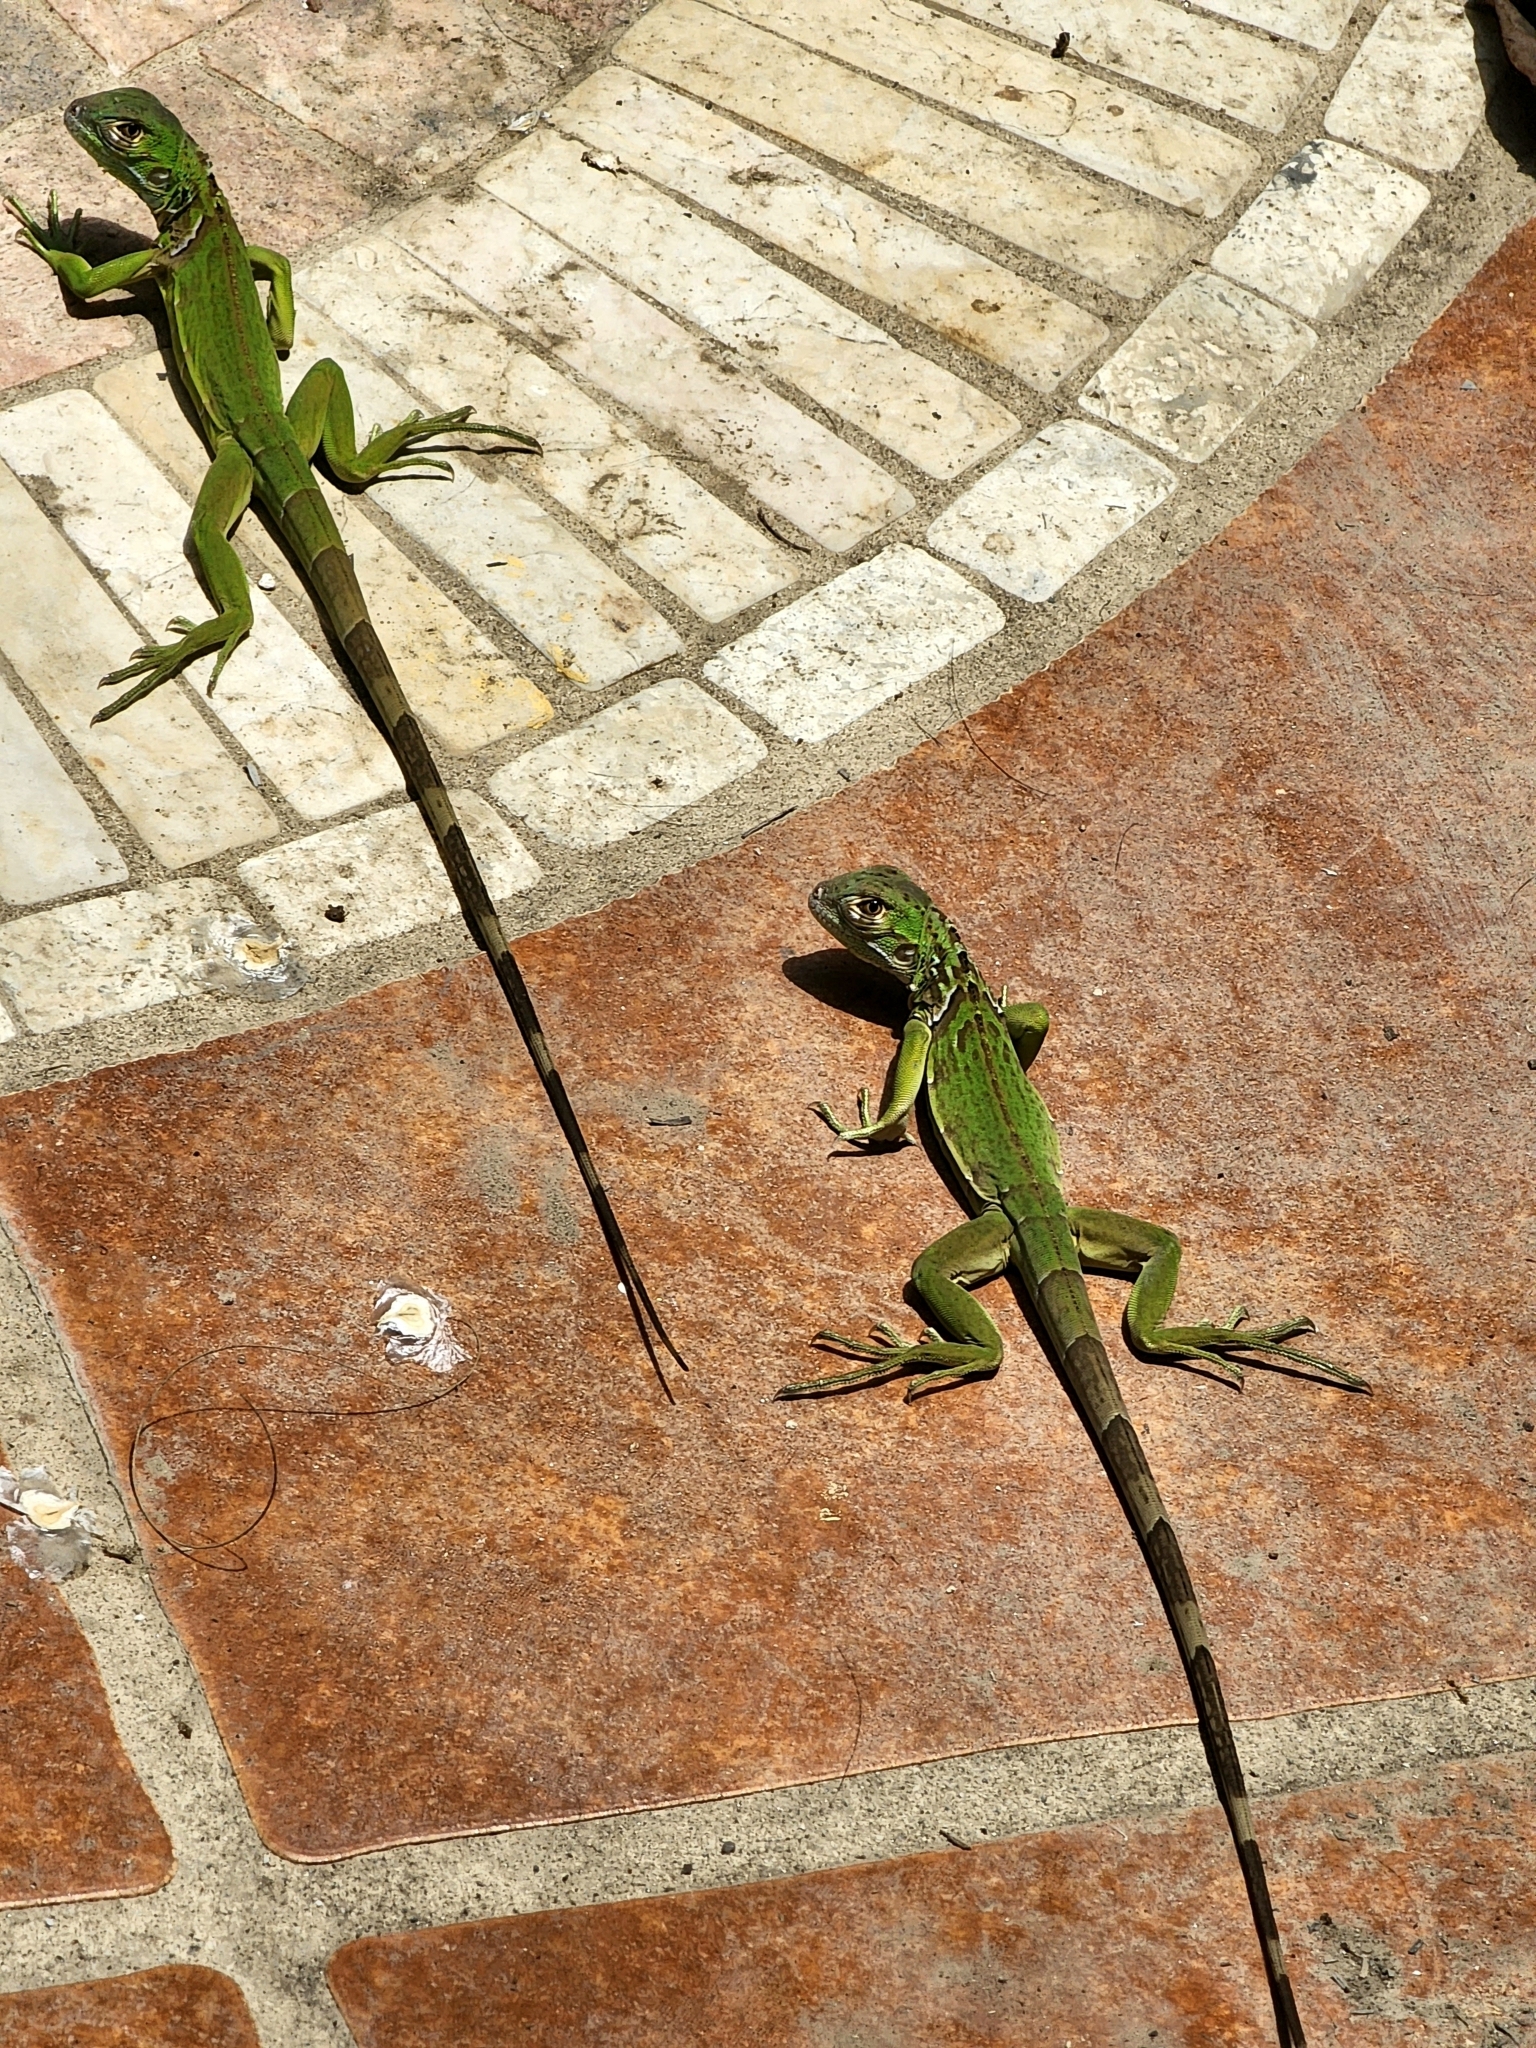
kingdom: Animalia
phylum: Chordata
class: Squamata
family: Iguanidae
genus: Iguana
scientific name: Iguana iguana
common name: Green iguana
